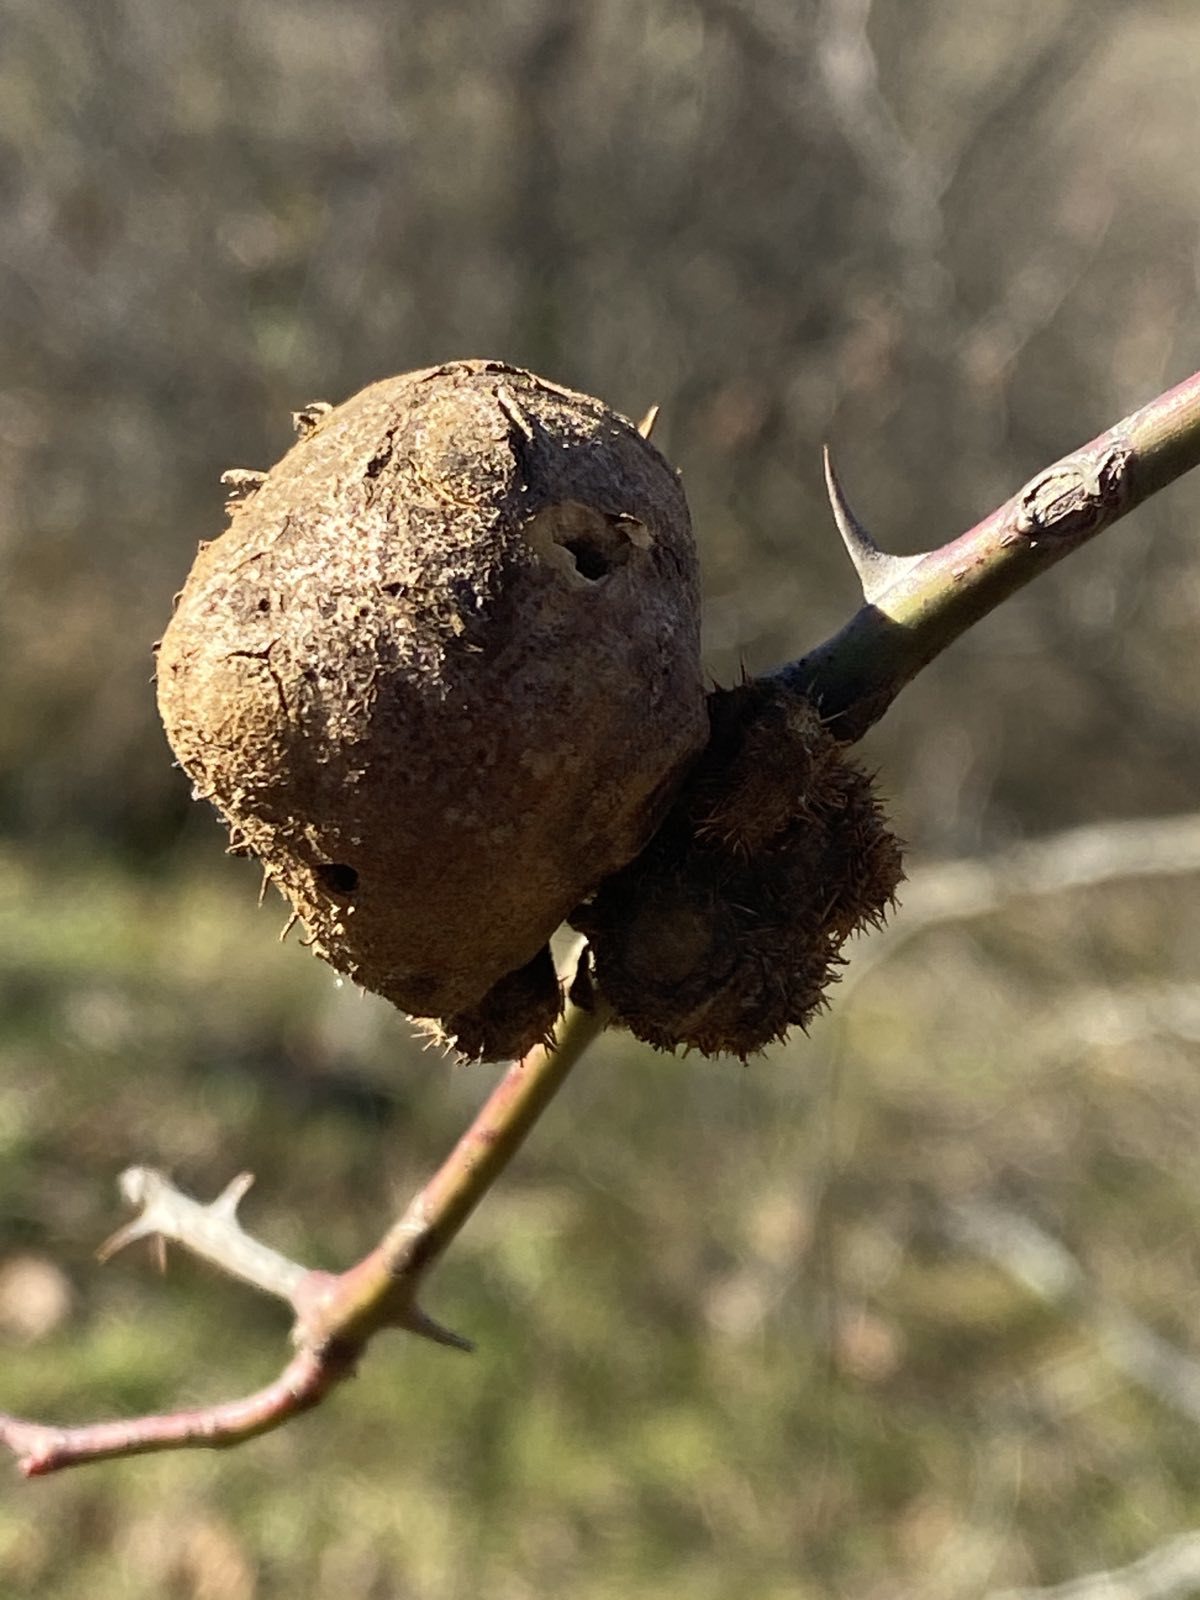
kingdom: Animalia
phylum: Arthropoda
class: Insecta
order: Hymenoptera
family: Cynipidae
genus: Diplolepis
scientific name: Diplolepis mayri
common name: Gall wasp
